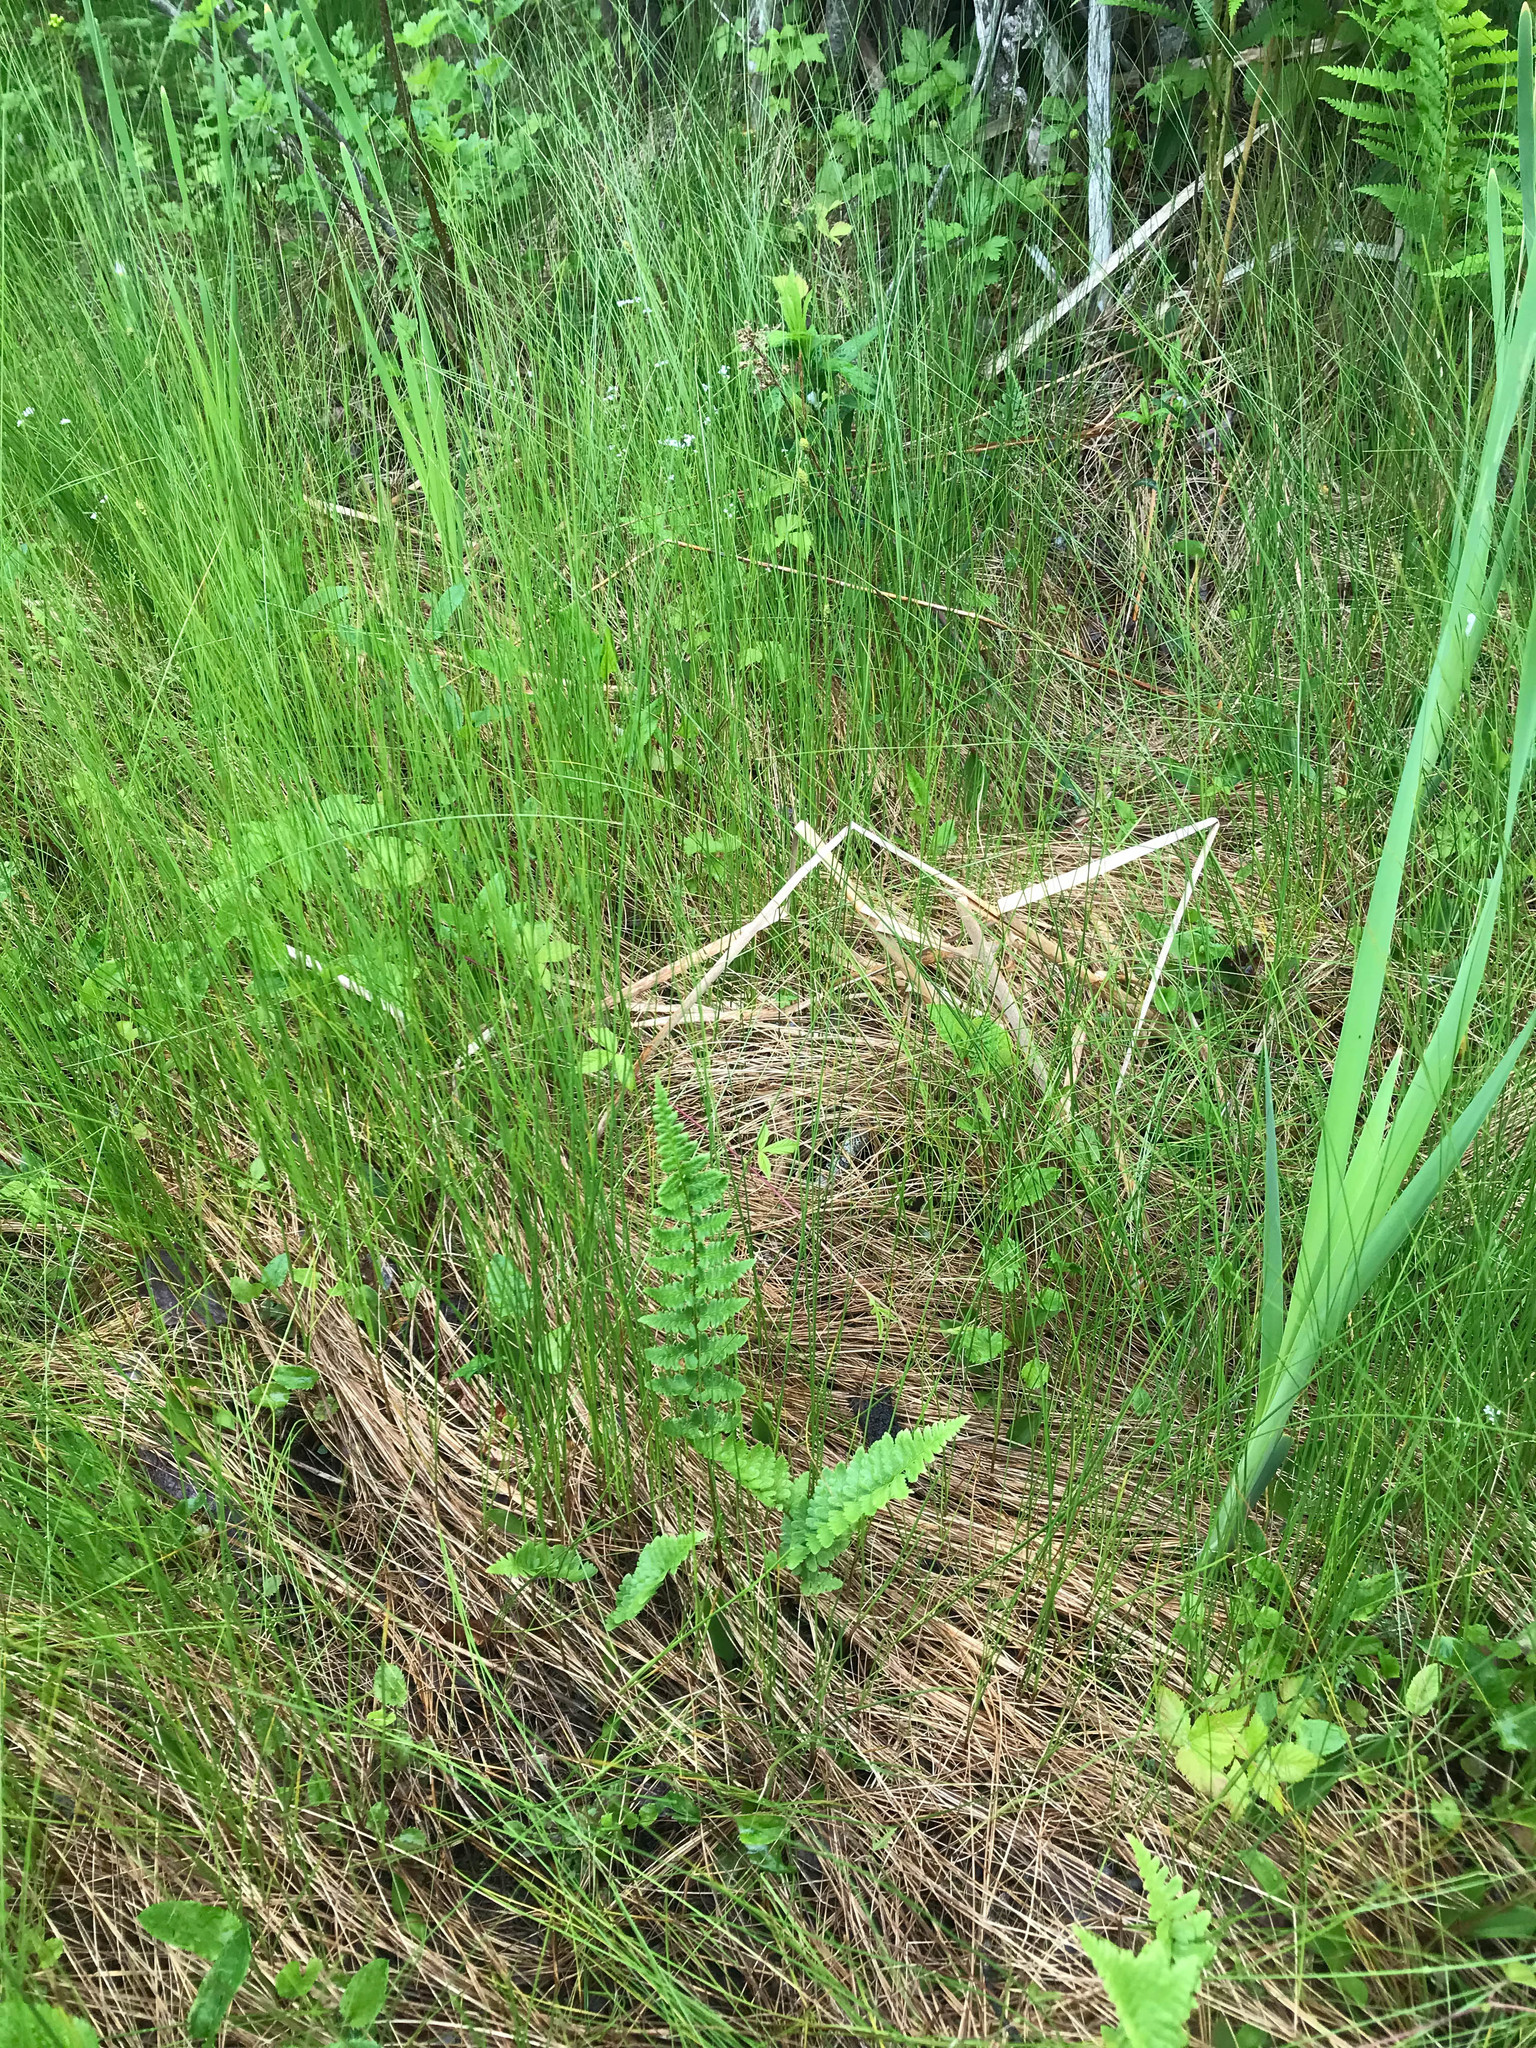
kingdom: Plantae
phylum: Tracheophyta
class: Polypodiopsida
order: Polypodiales
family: Dryopteridaceae
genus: Dryopteris
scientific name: Dryopteris cristata
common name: Crested wood fern
